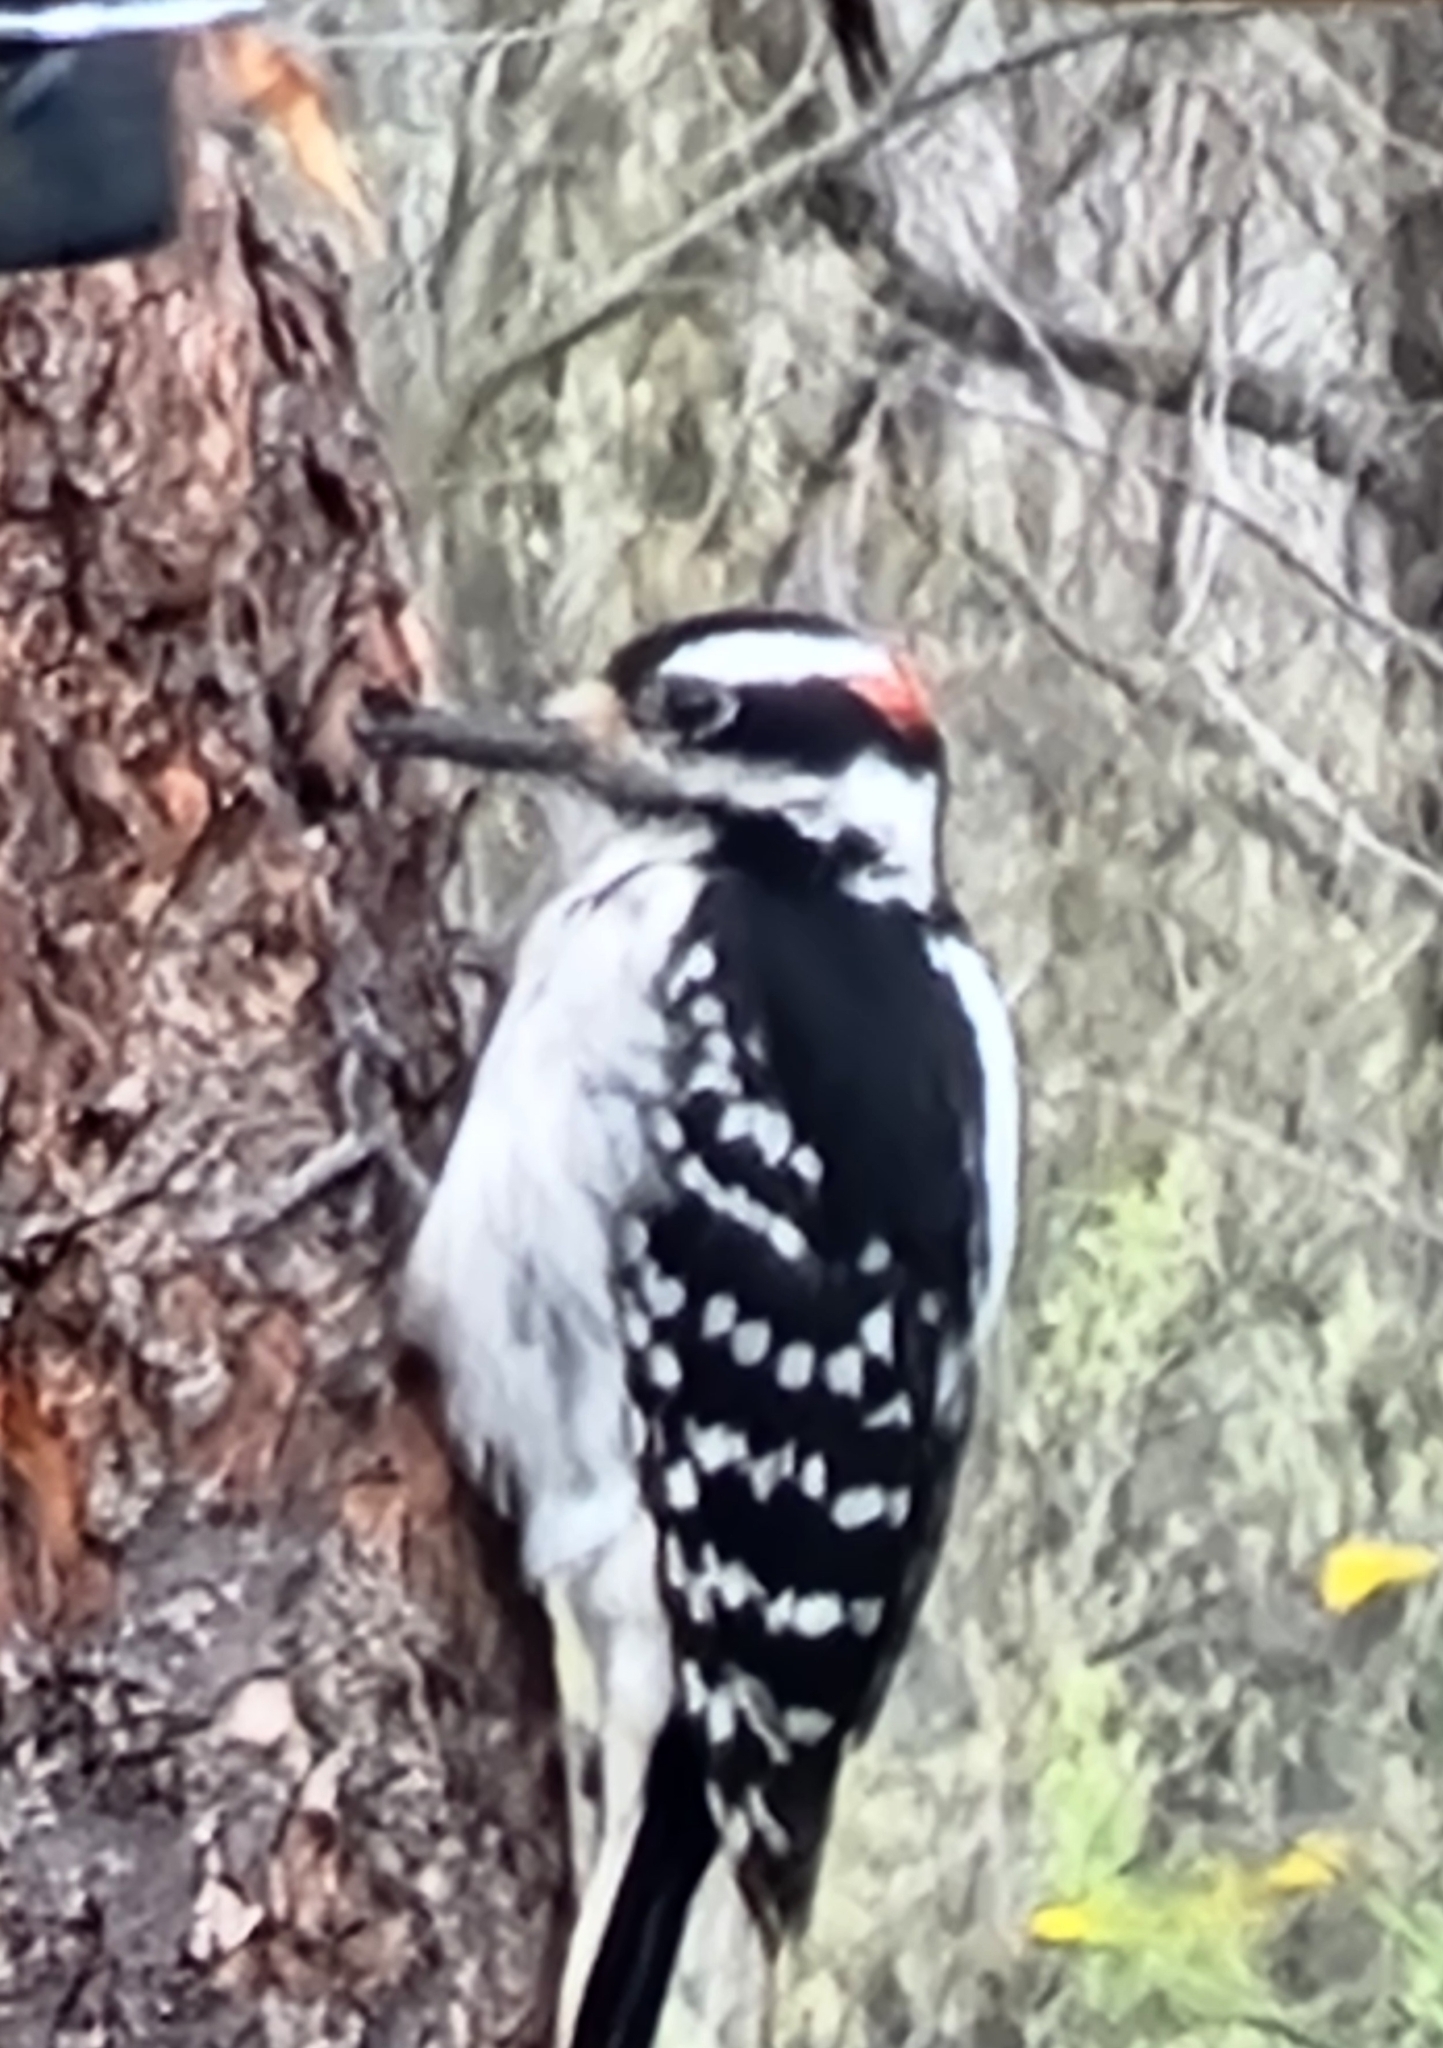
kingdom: Animalia
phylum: Chordata
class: Aves
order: Piciformes
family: Picidae
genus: Leuconotopicus
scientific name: Leuconotopicus villosus
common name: Hairy woodpecker
